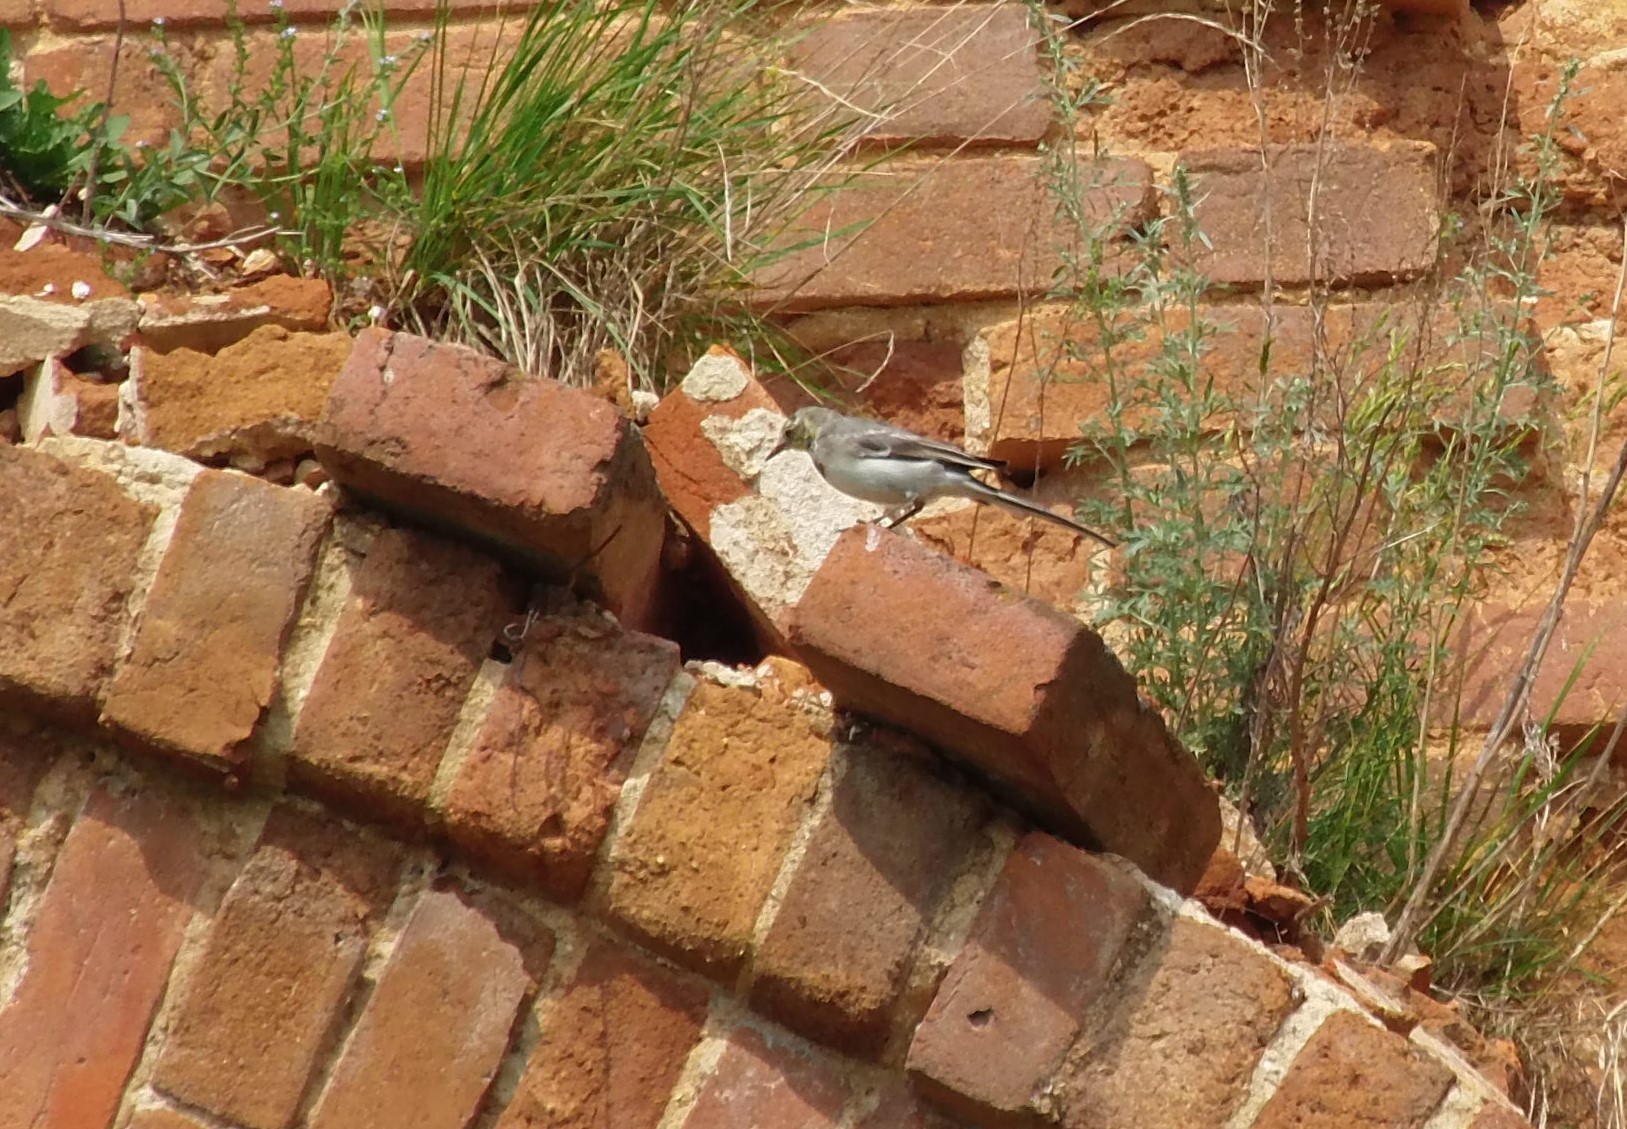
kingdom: Animalia
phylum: Chordata
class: Aves
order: Passeriformes
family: Motacillidae
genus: Motacilla
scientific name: Motacilla alba
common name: White wagtail
